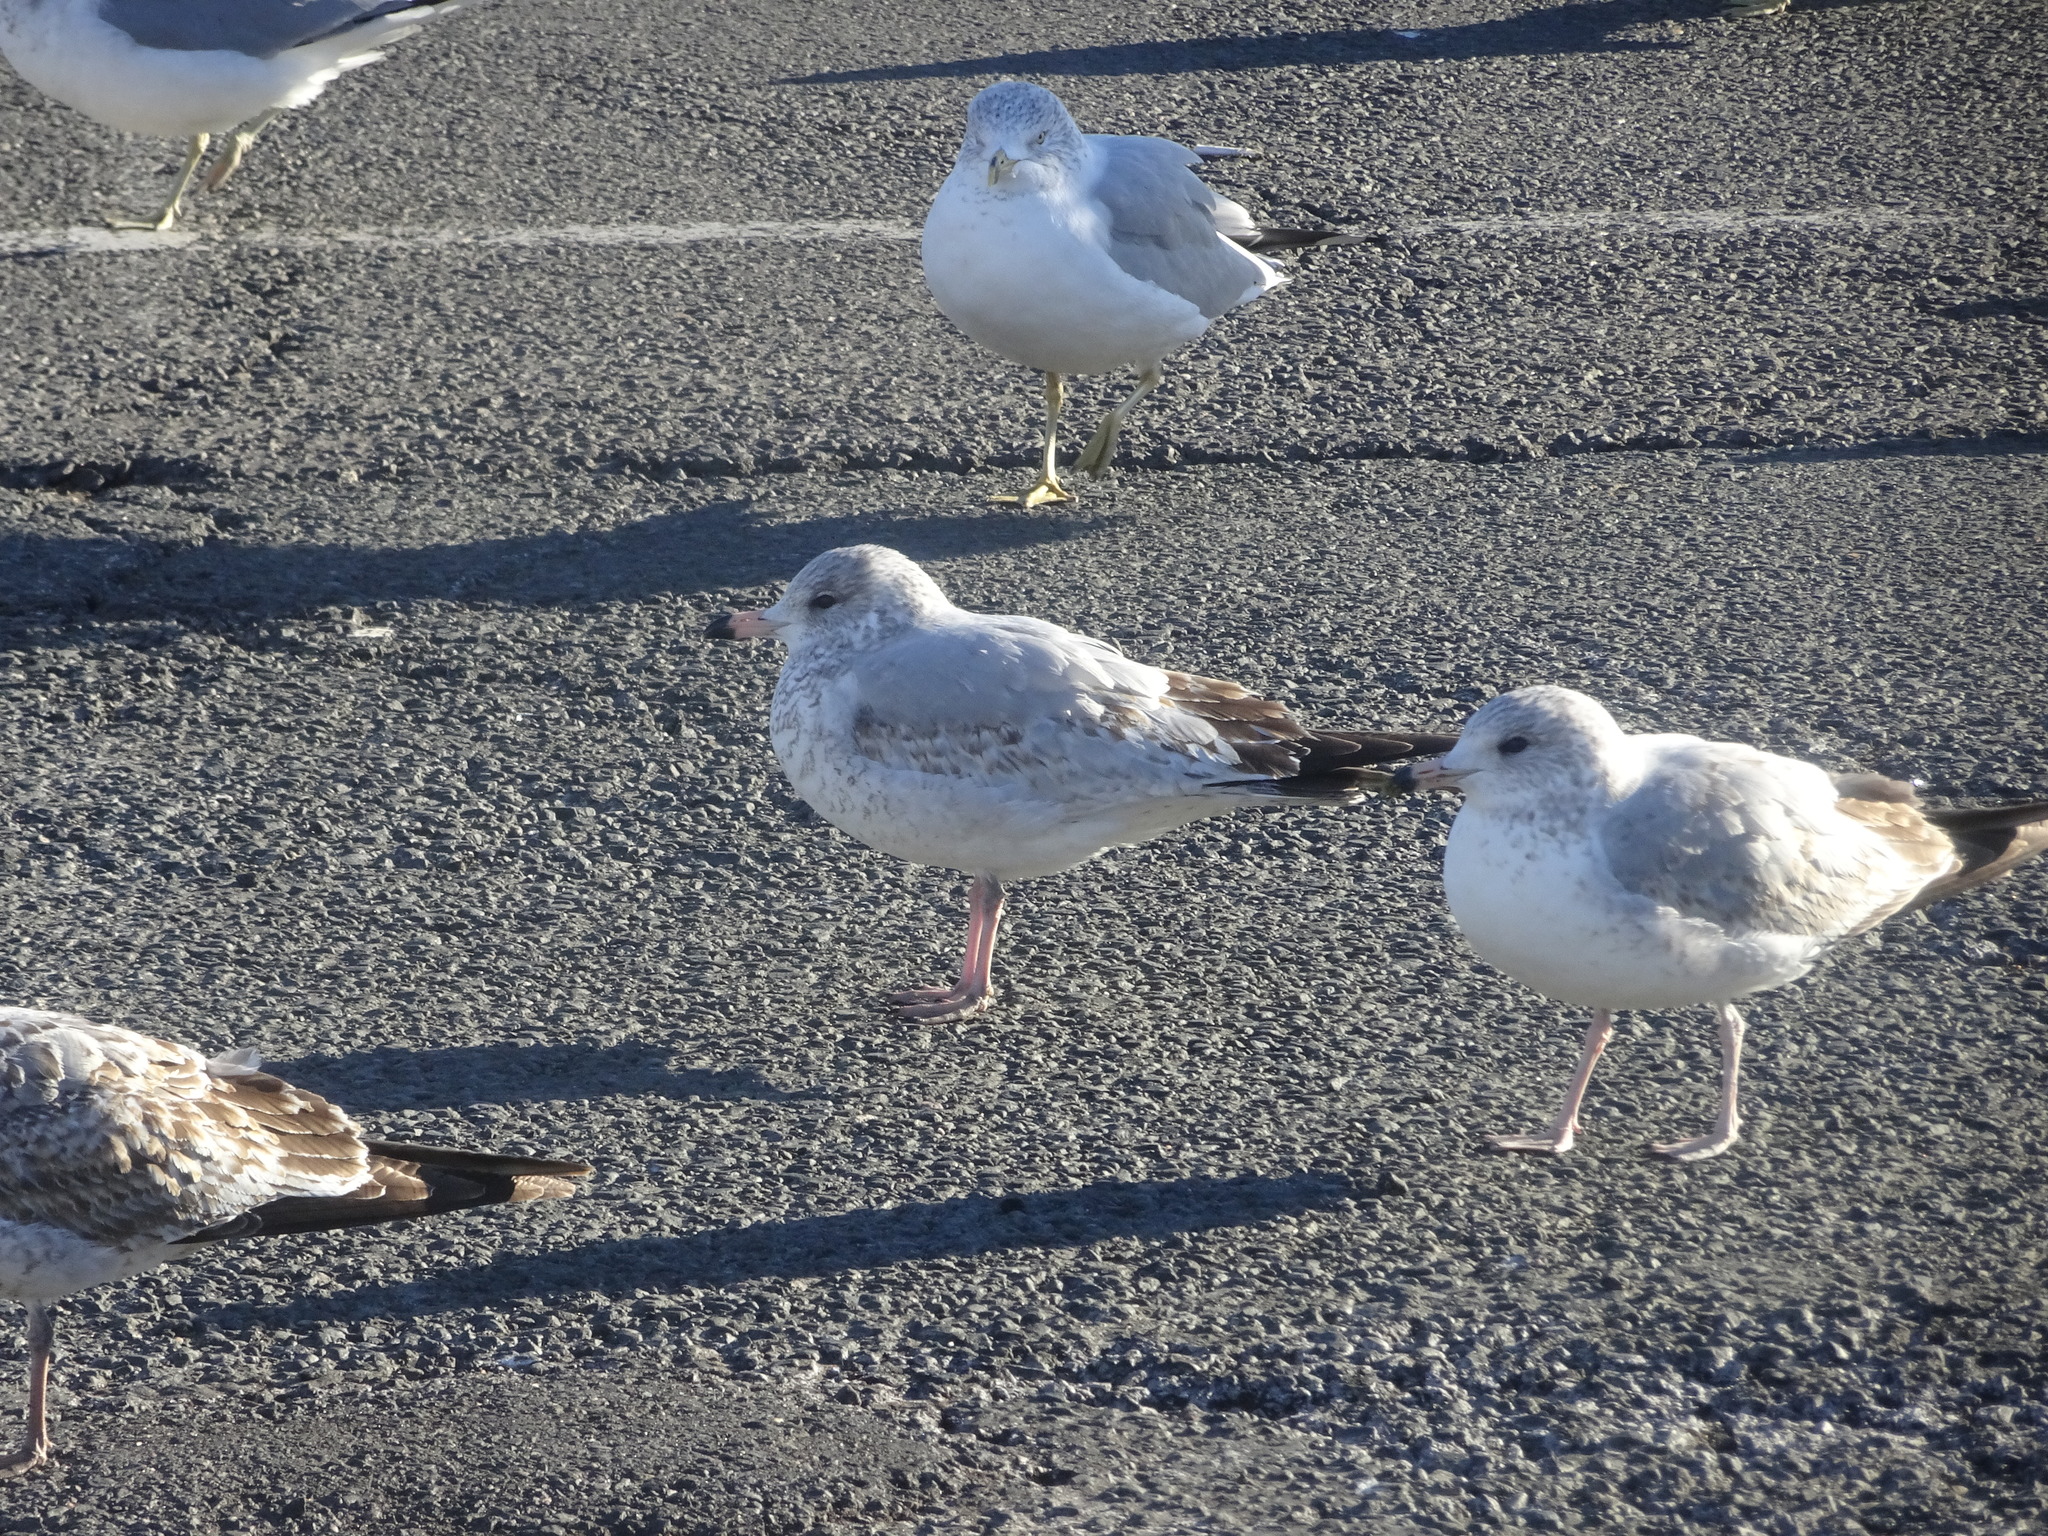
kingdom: Animalia
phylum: Chordata
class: Aves
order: Charadriiformes
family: Laridae
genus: Larus
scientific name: Larus delawarensis
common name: Ring-billed gull
